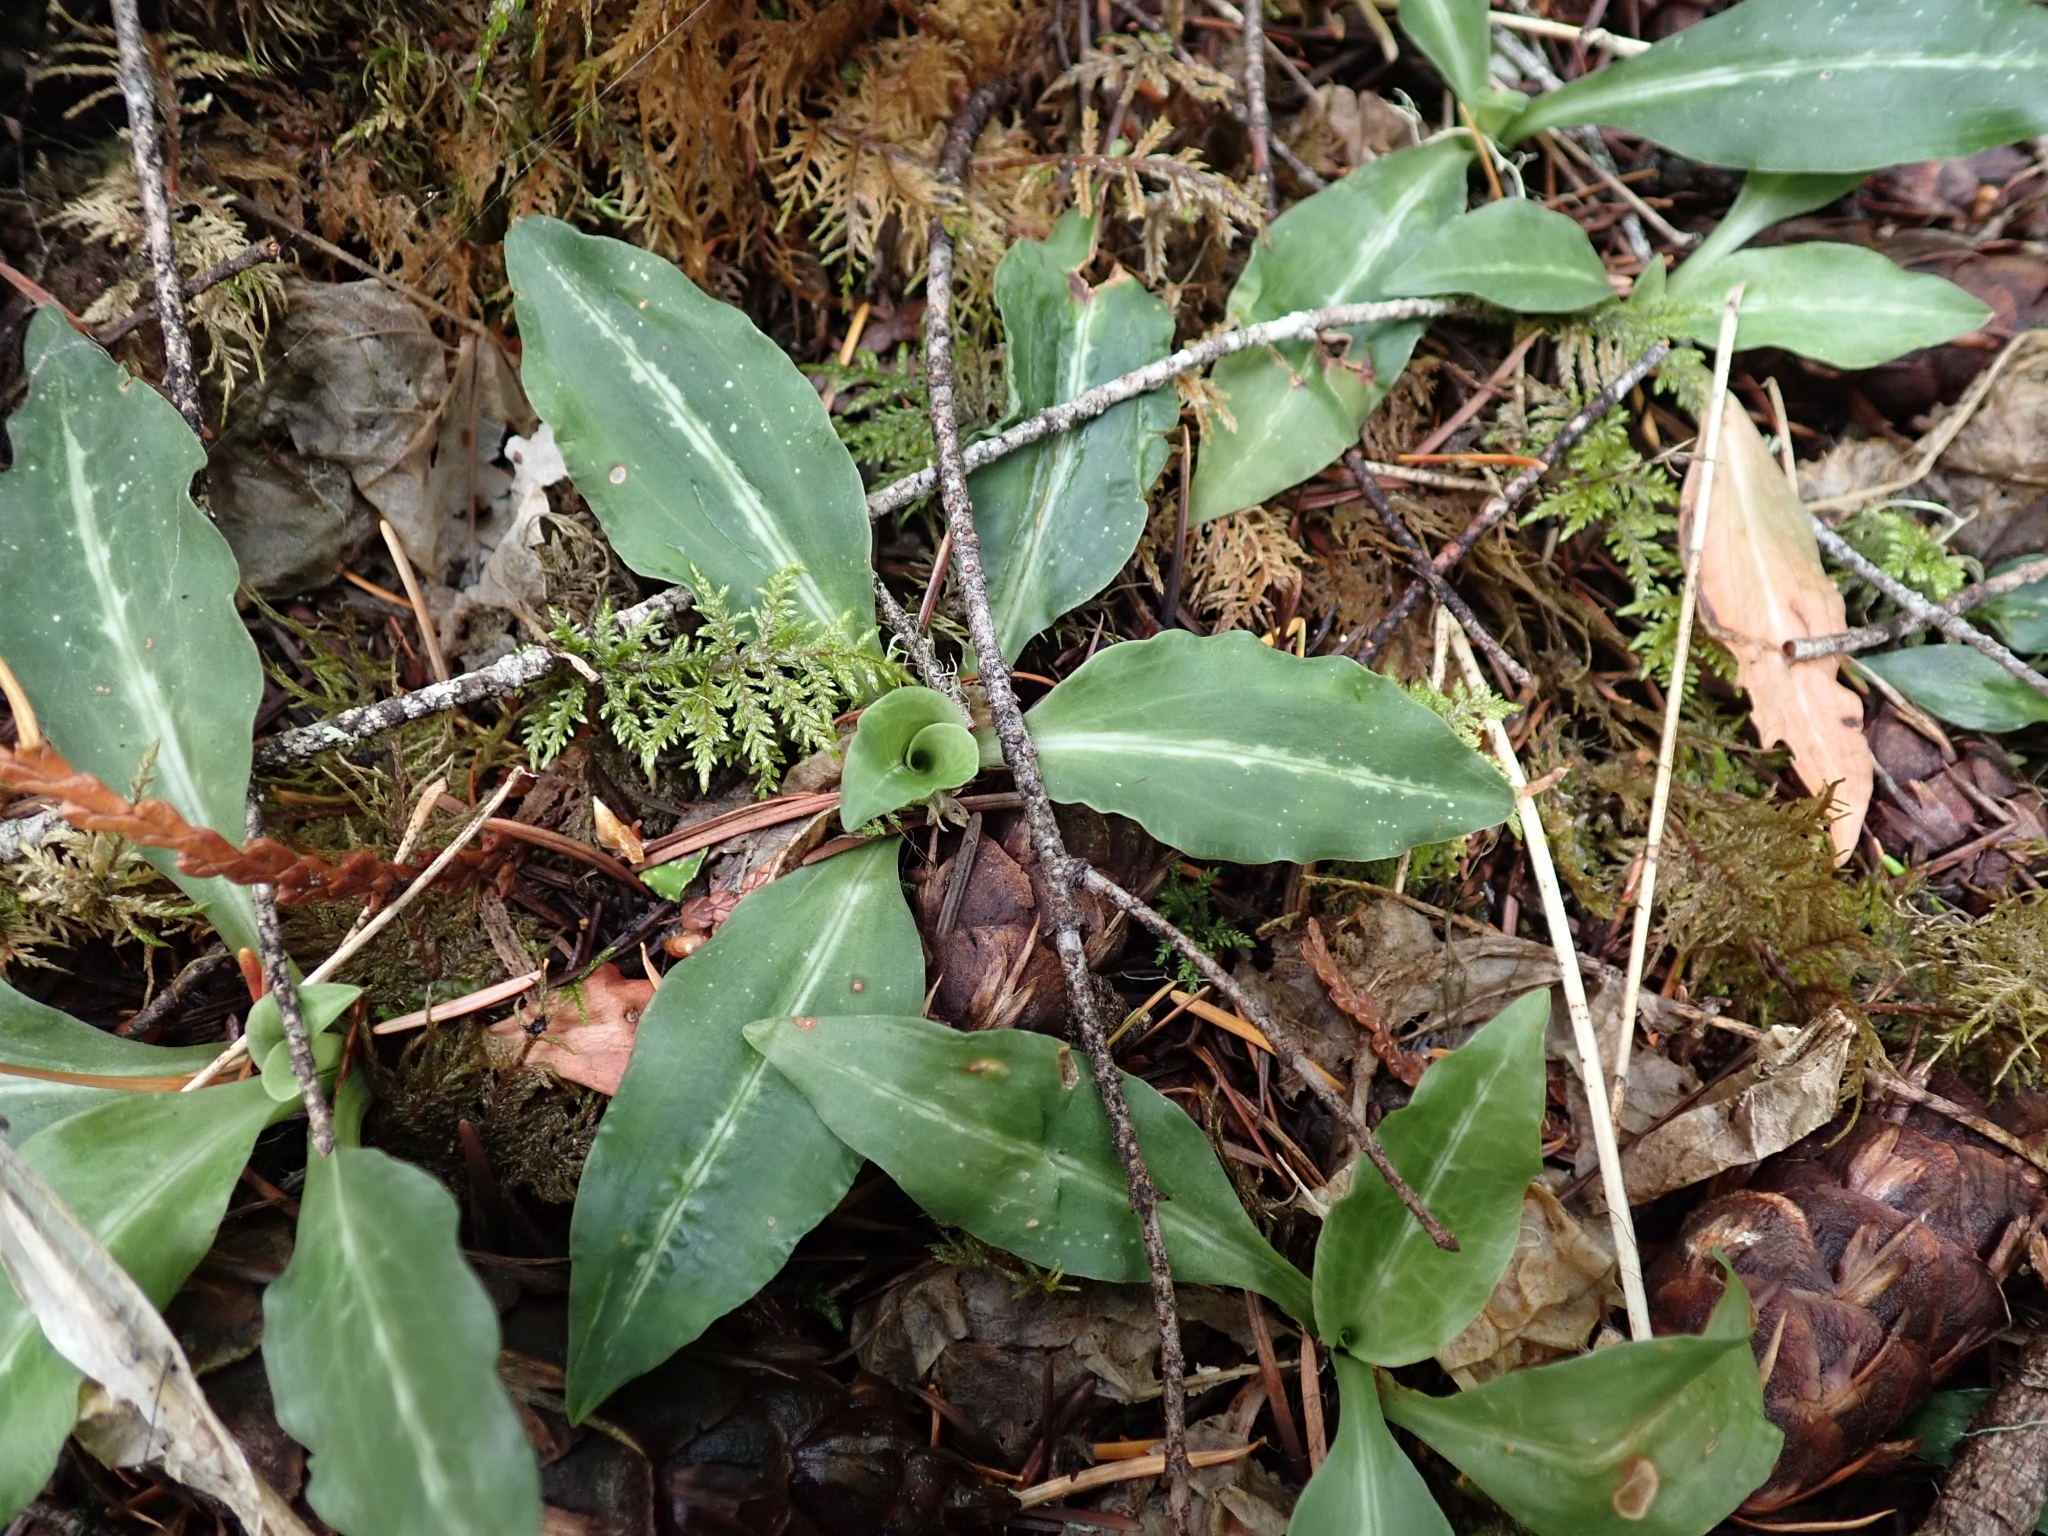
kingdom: Plantae
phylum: Tracheophyta
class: Liliopsida
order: Asparagales
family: Orchidaceae
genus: Goodyera
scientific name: Goodyera oblongifolia
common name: Giant rattlesnake-plantain
